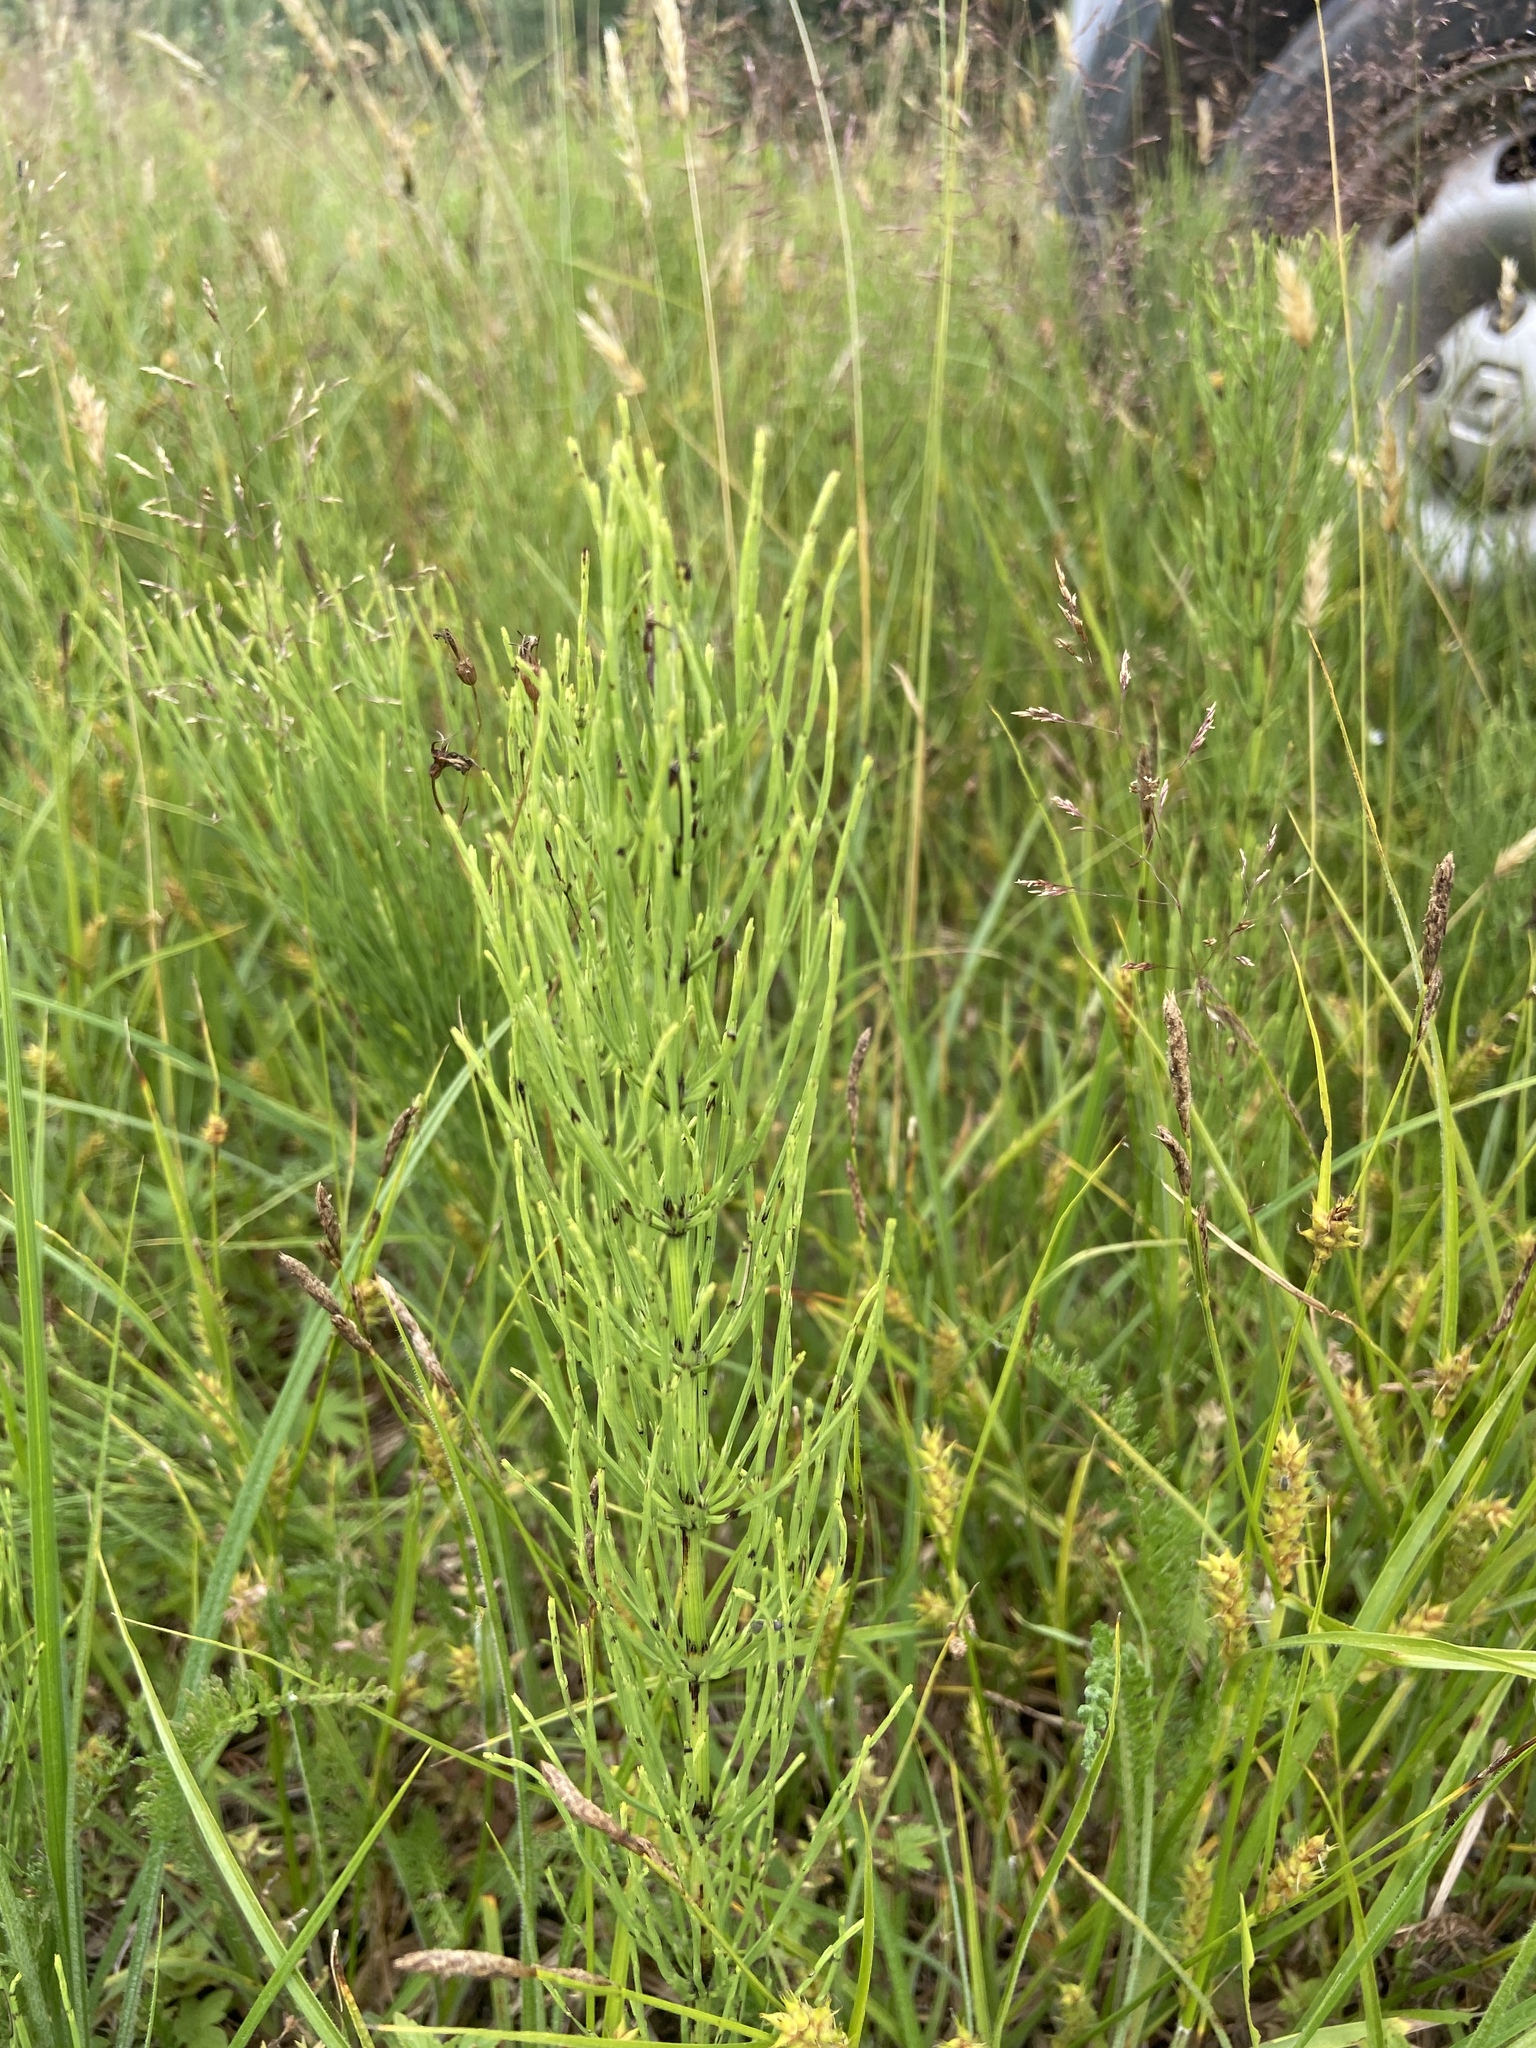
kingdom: Plantae
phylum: Tracheophyta
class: Polypodiopsida
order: Equisetales
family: Equisetaceae
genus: Equisetum
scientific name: Equisetum arvense
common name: Field horsetail
